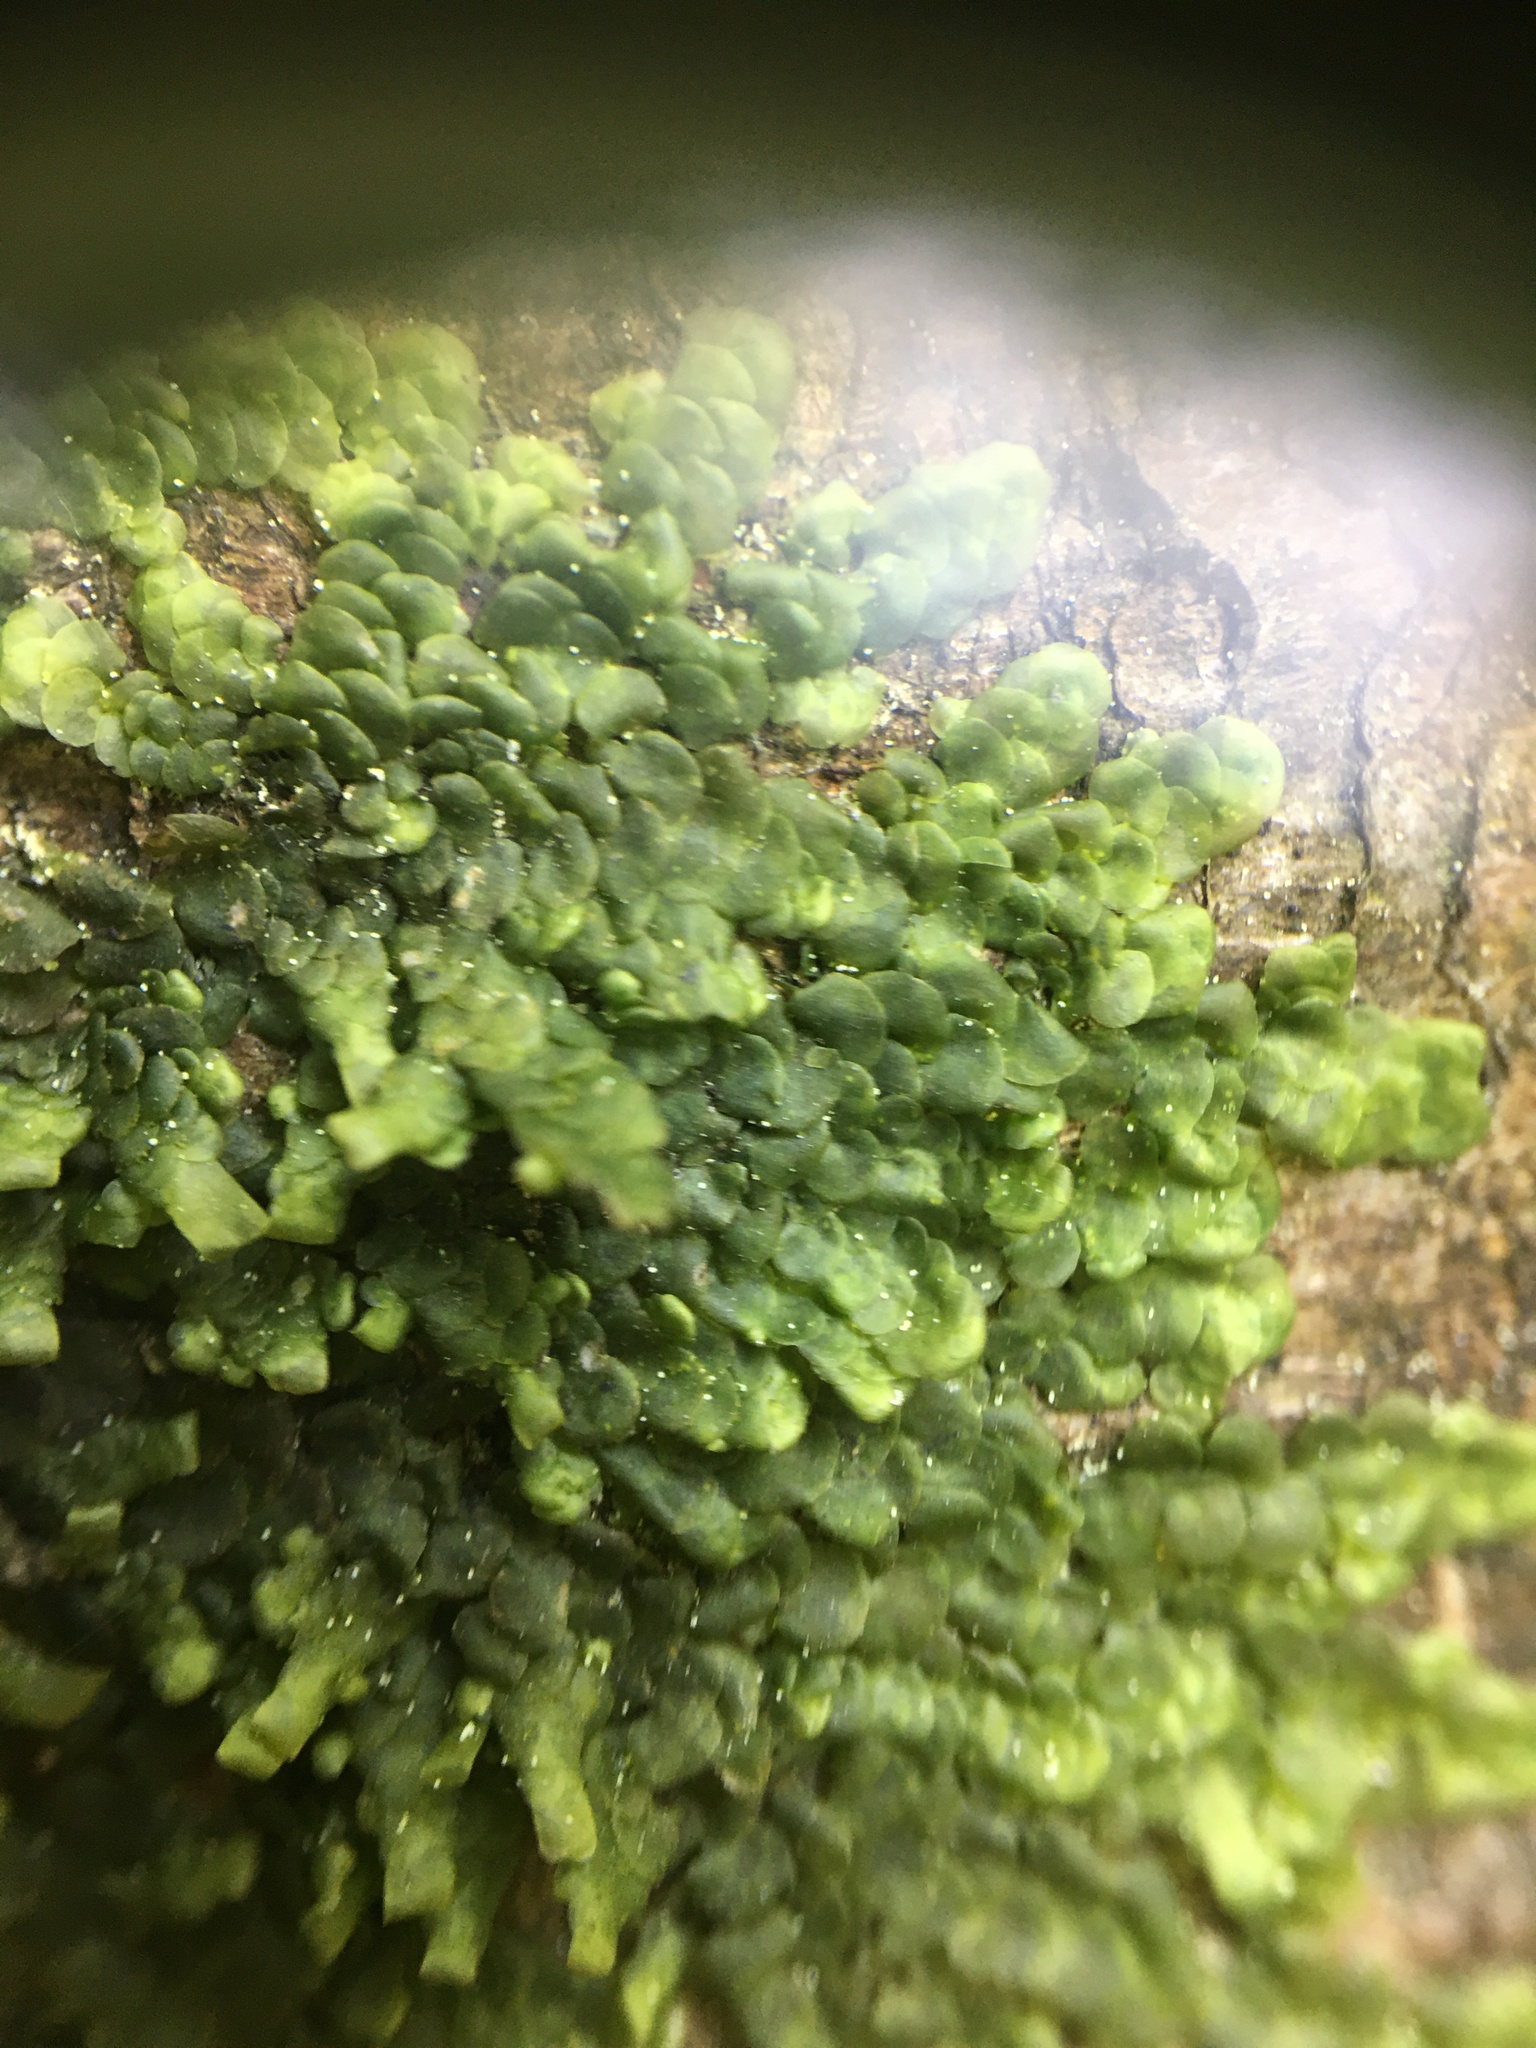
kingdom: Plantae
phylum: Marchantiophyta
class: Jungermanniopsida
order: Porellales
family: Radulaceae
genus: Radula
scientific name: Radula complanata
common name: Flat-leaved scalewort
